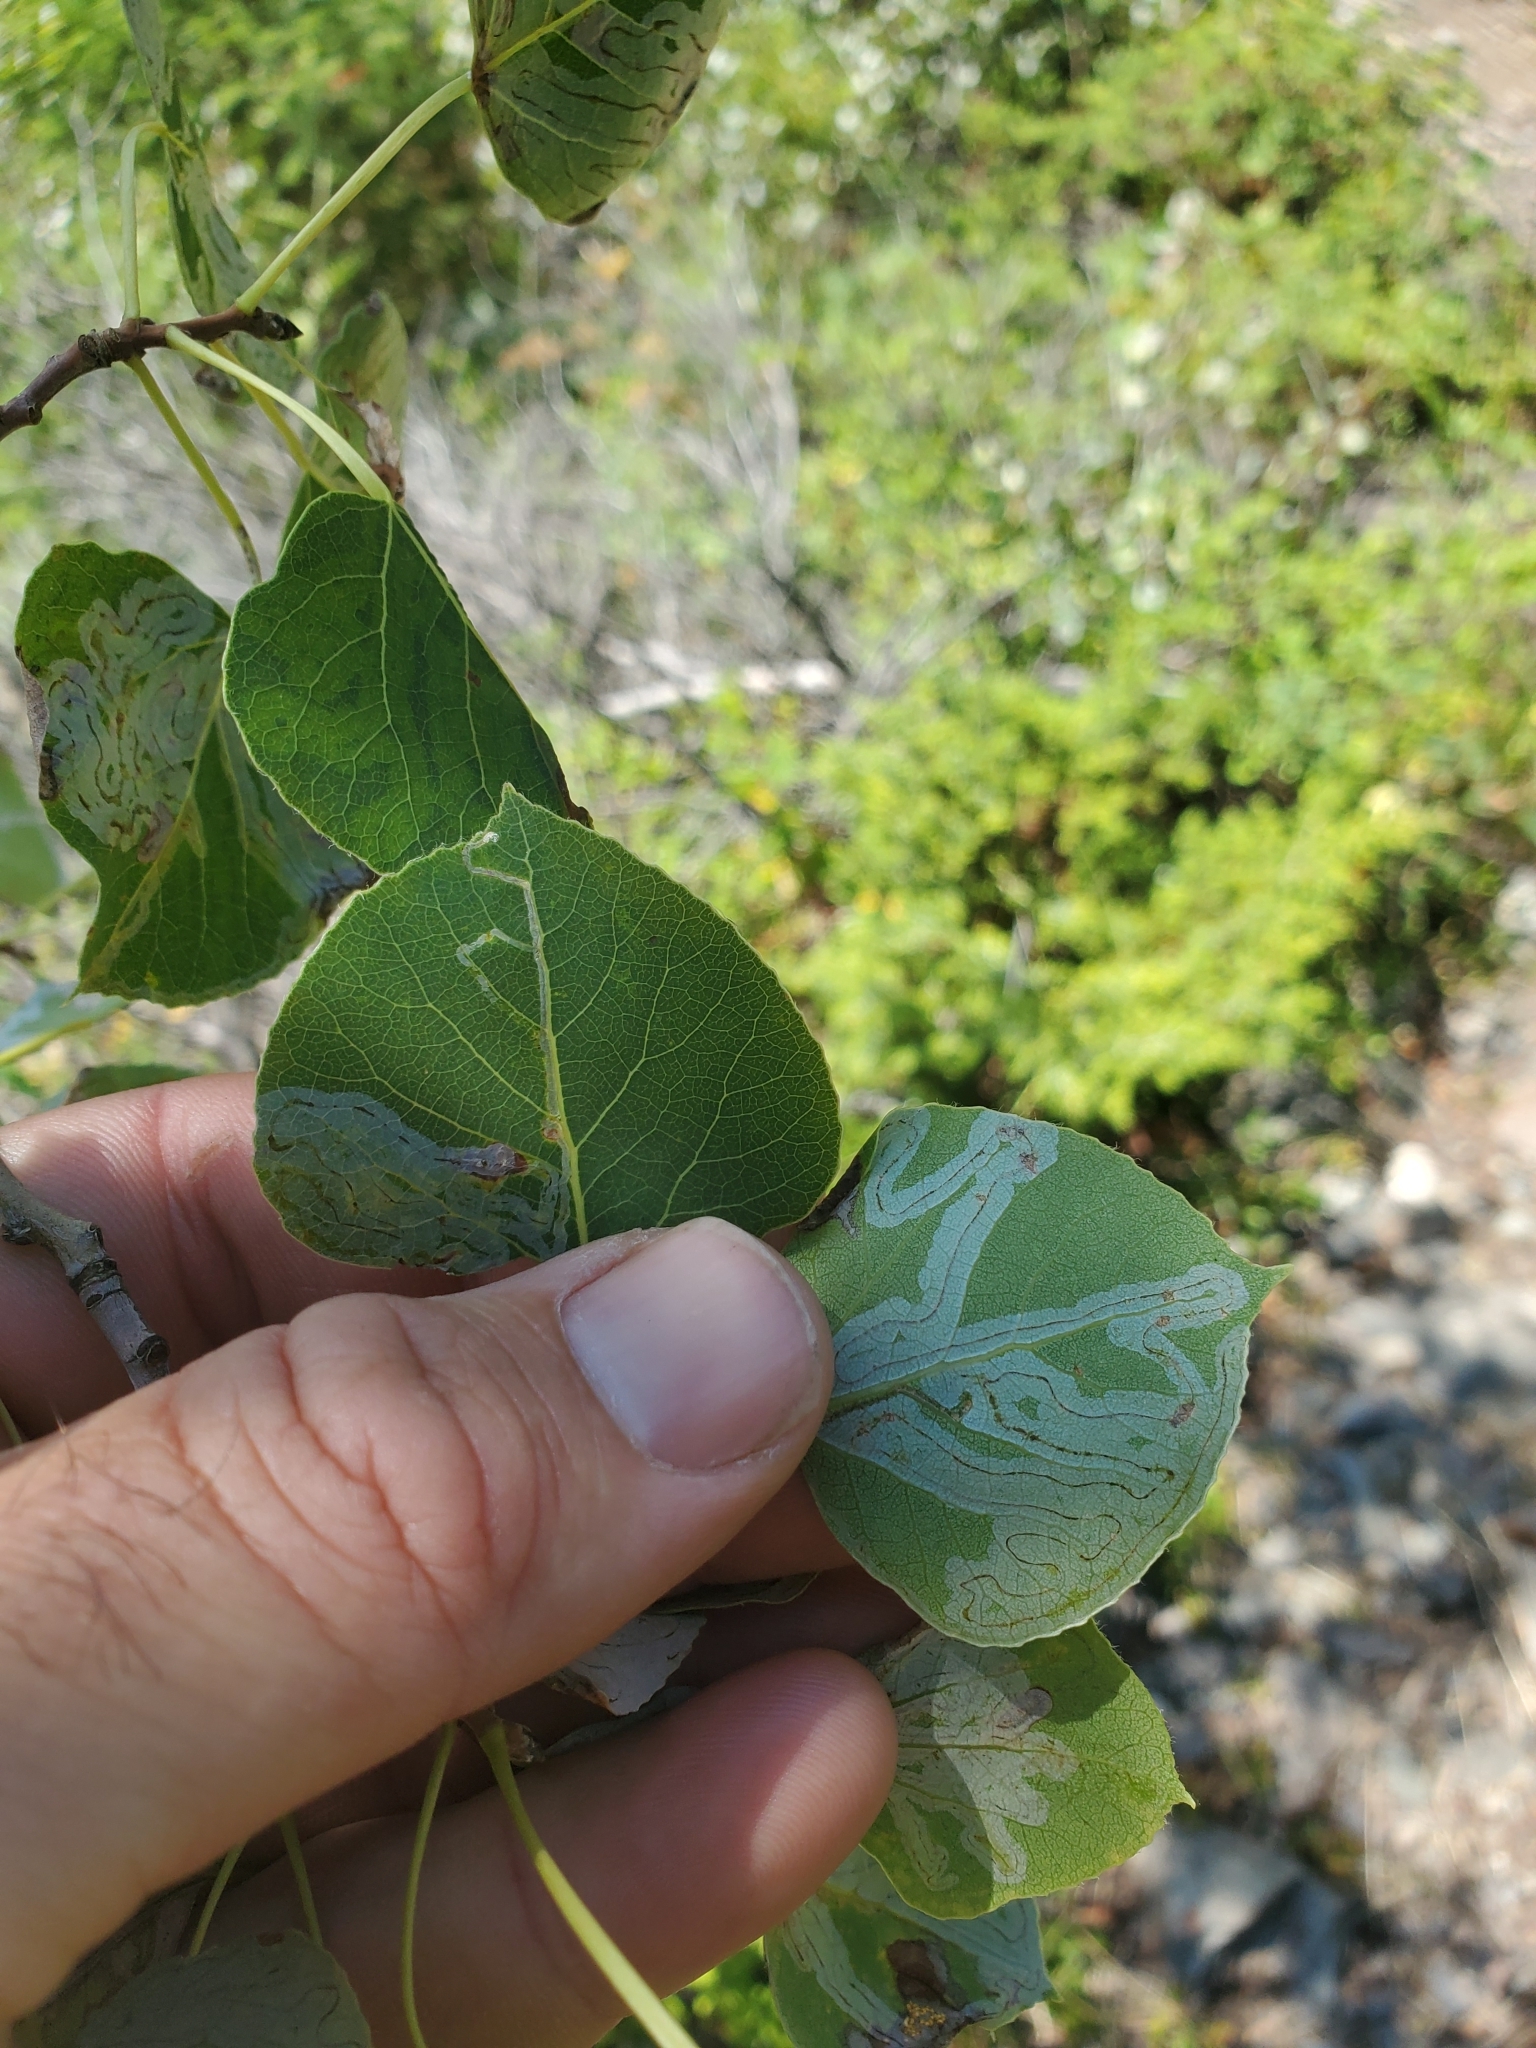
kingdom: Plantae
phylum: Tracheophyta
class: Magnoliopsida
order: Malpighiales
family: Salicaceae
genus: Populus
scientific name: Populus tremuloides
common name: Quaking aspen
